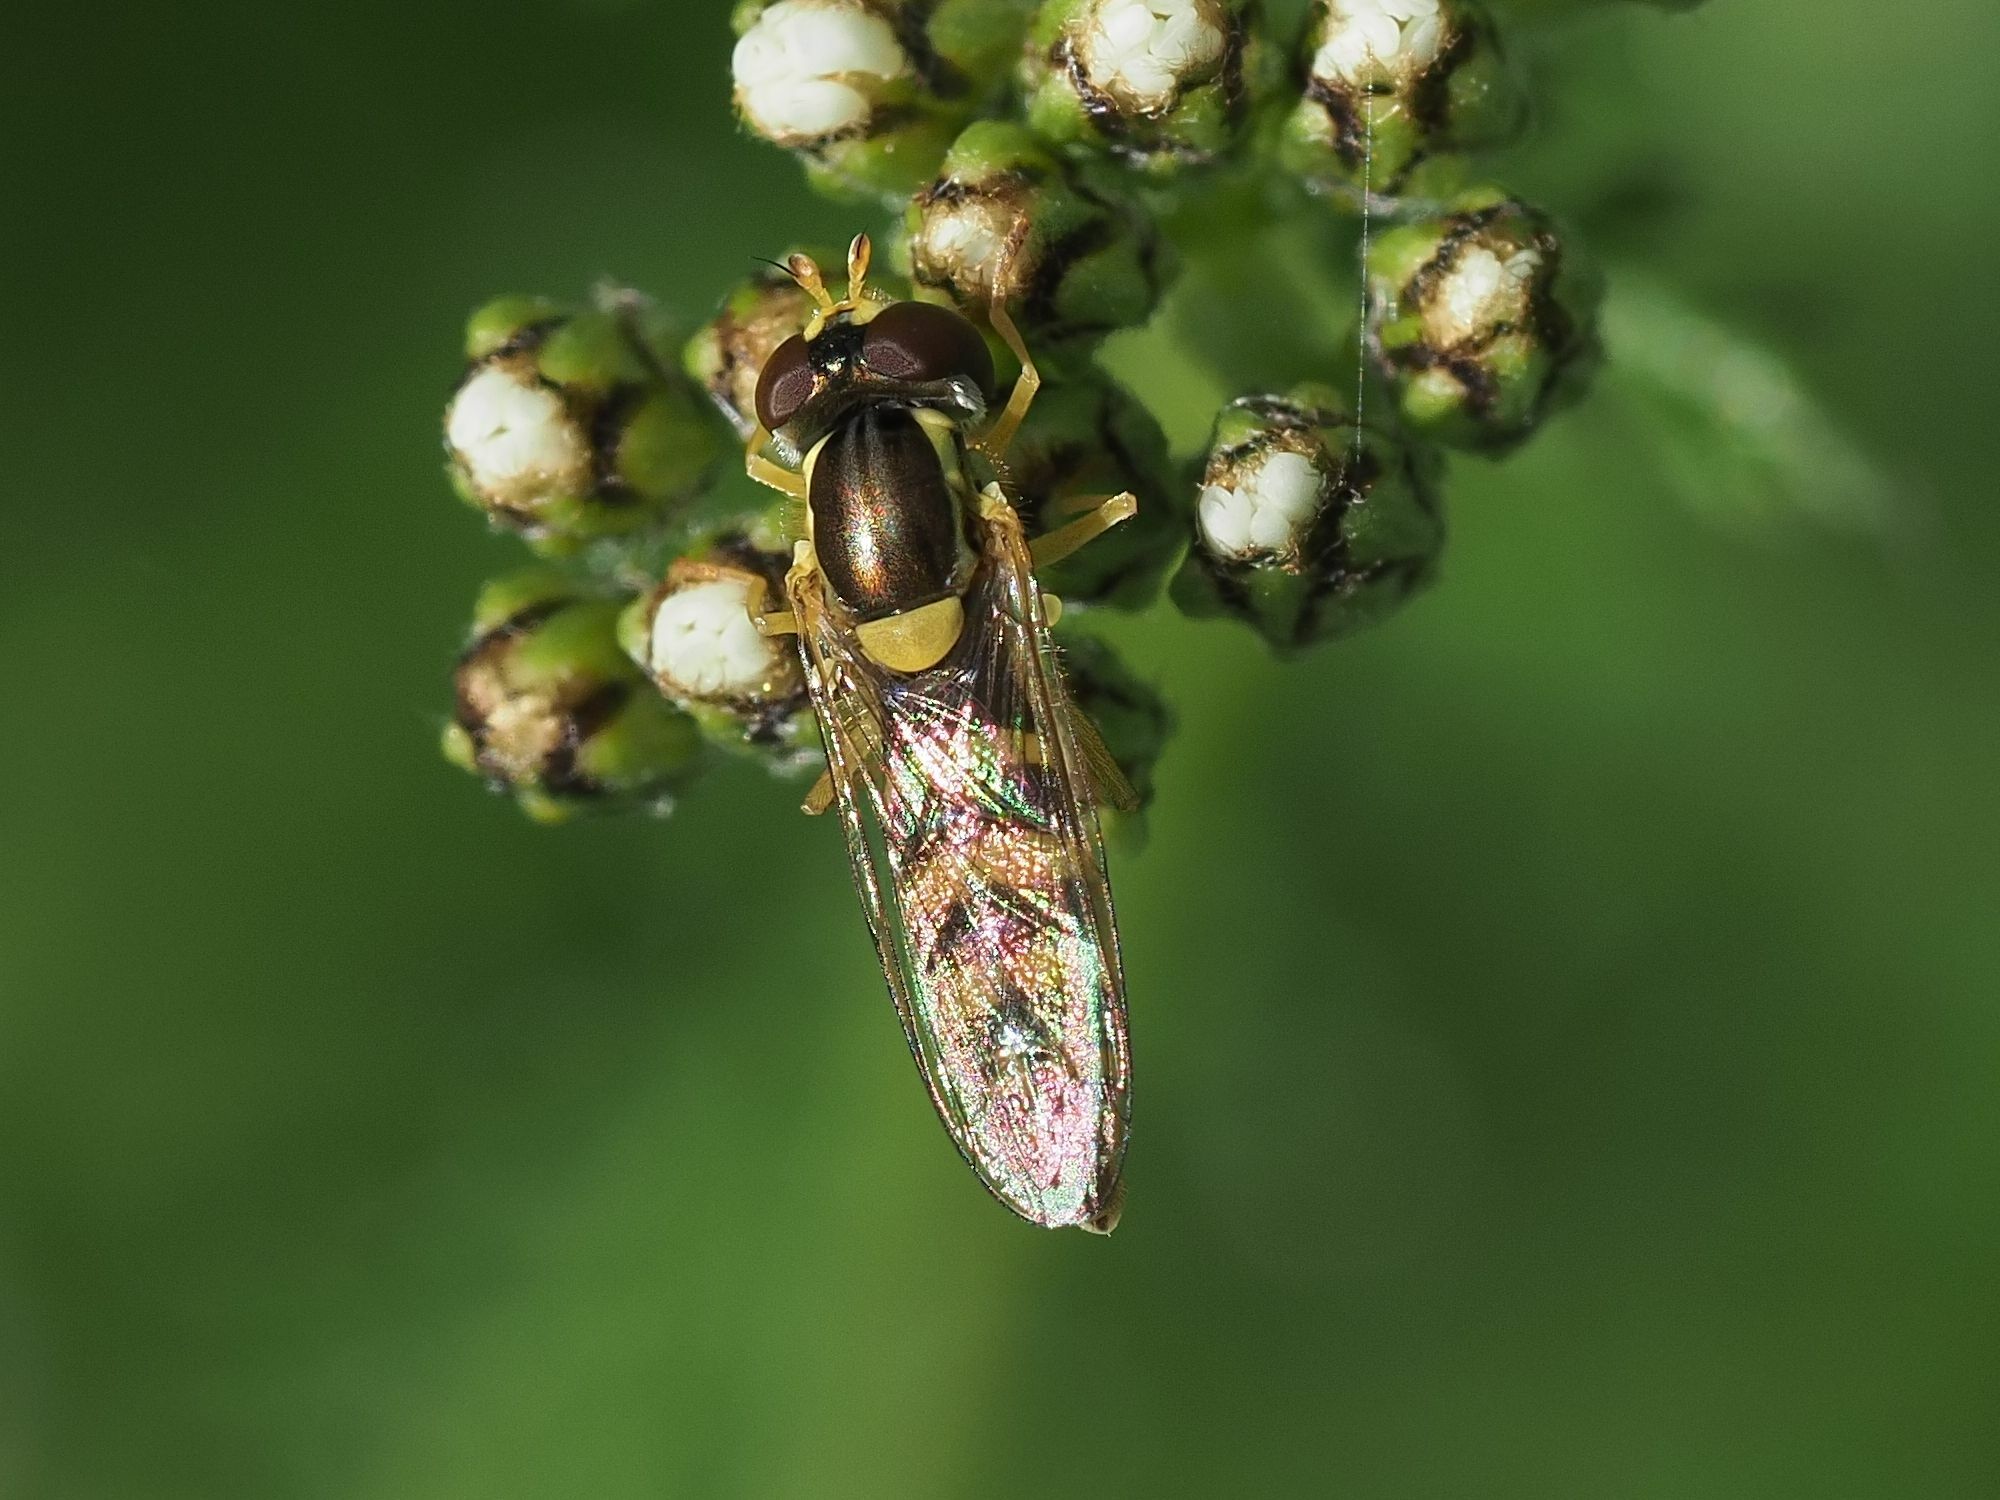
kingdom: Animalia
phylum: Arthropoda
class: Insecta
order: Diptera
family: Syrphidae
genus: Sphaerophoria
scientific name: Sphaerophoria
